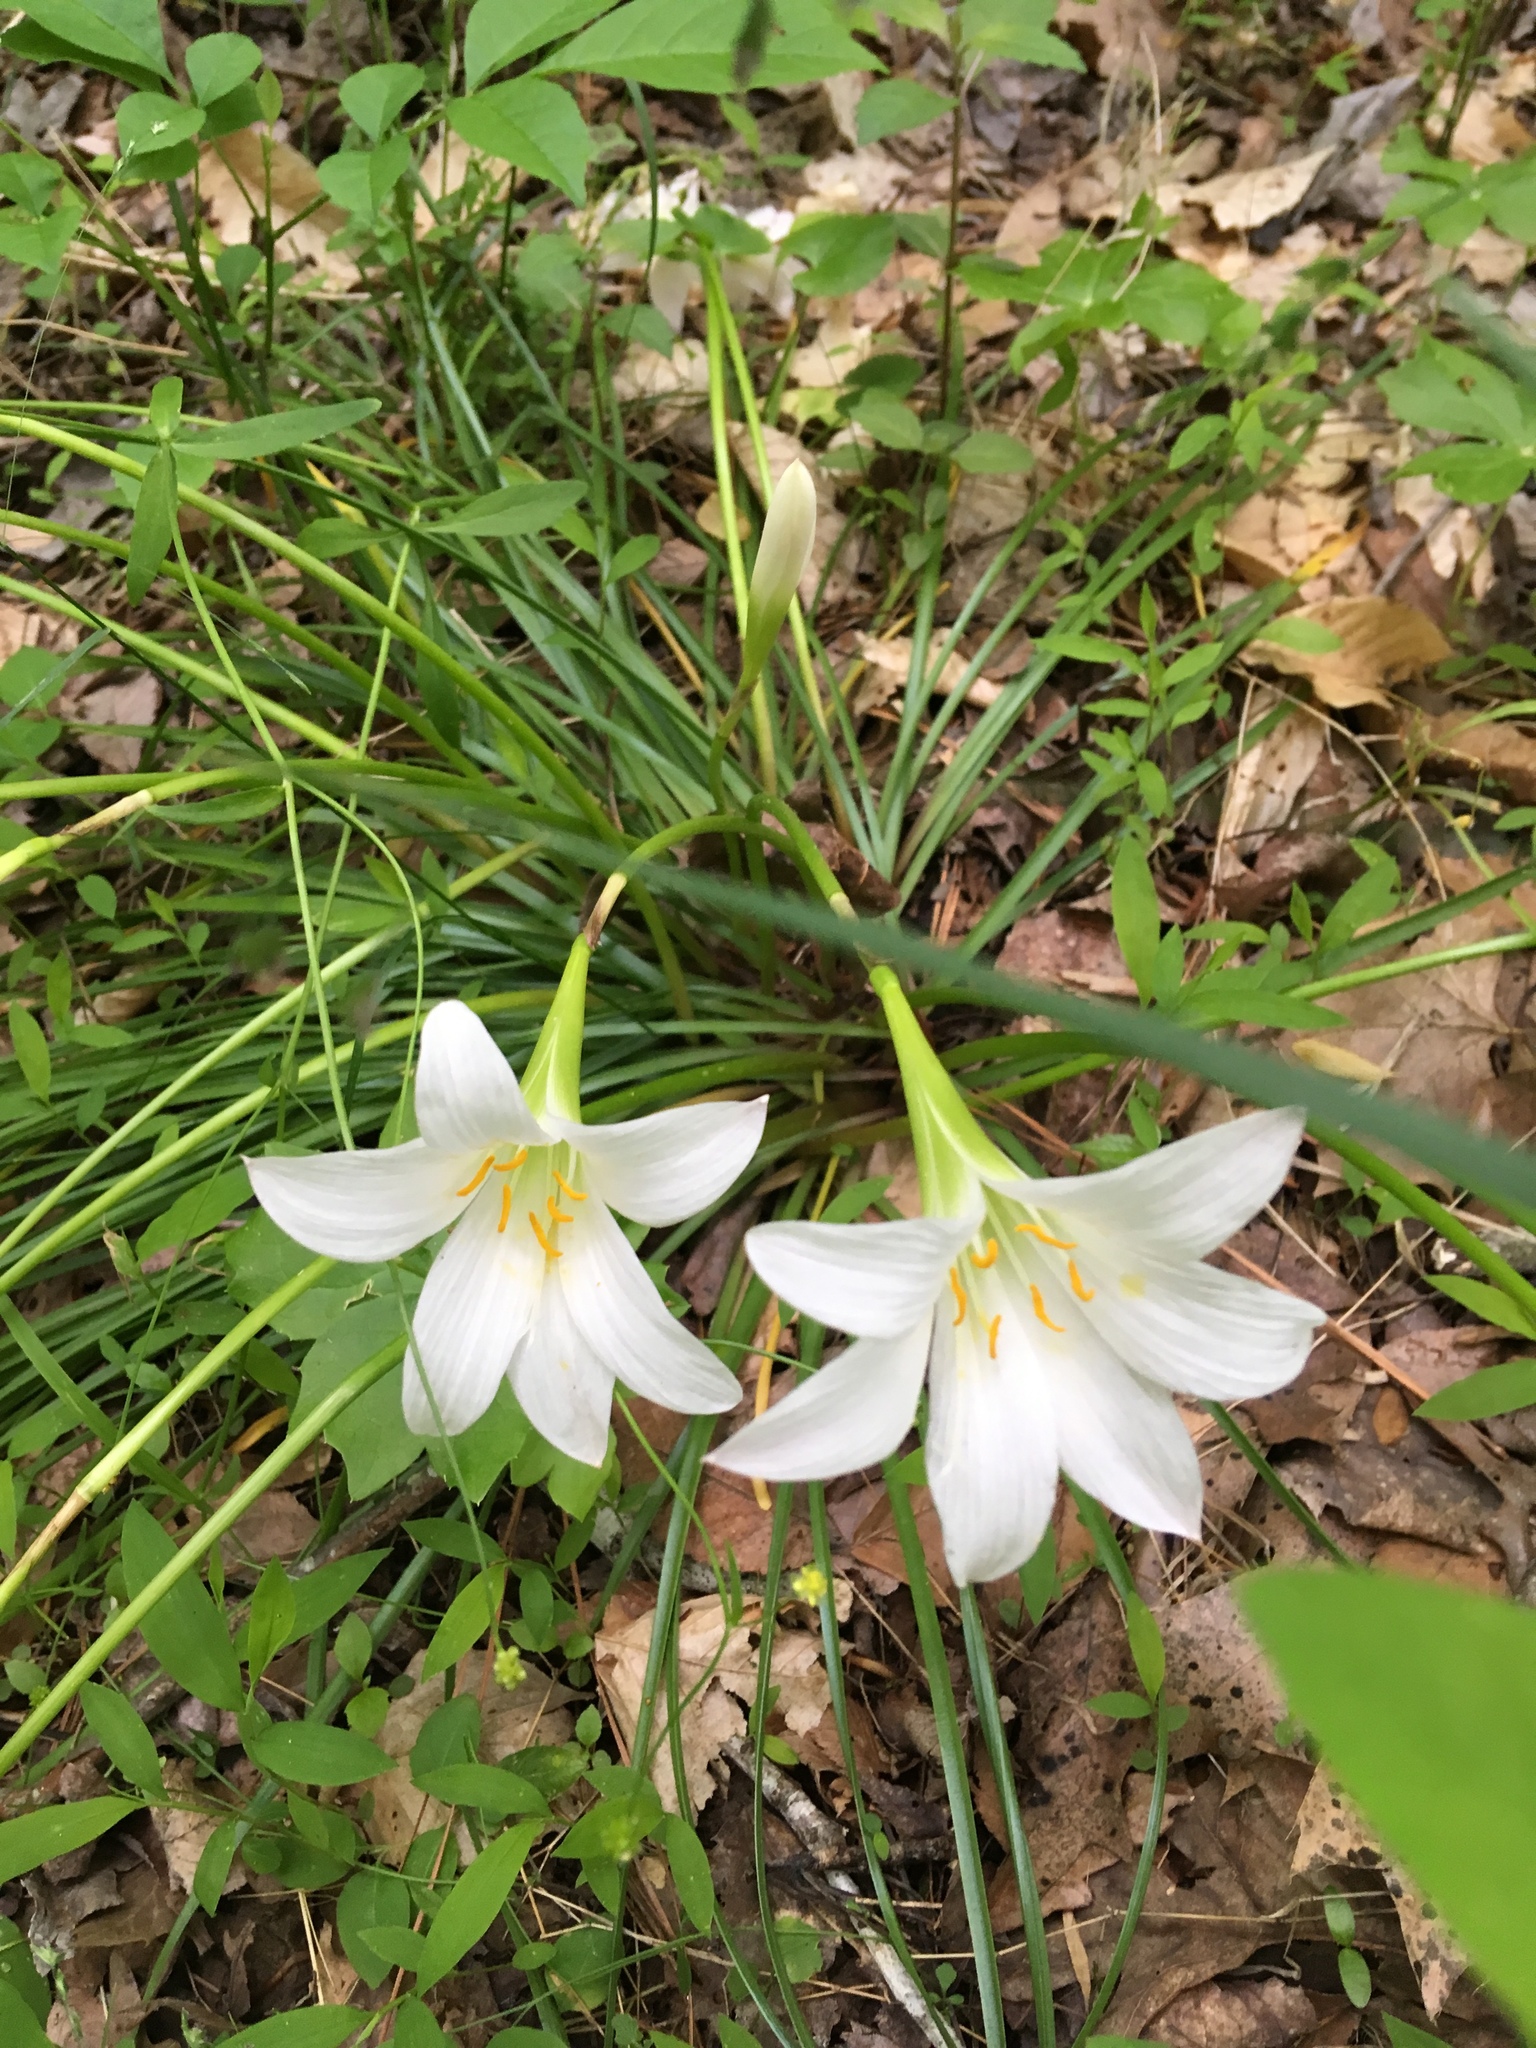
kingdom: Plantae
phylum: Tracheophyta
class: Liliopsida
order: Asparagales
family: Amaryllidaceae
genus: Zephyranthes
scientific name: Zephyranthes atamasco
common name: Atamasco lily
